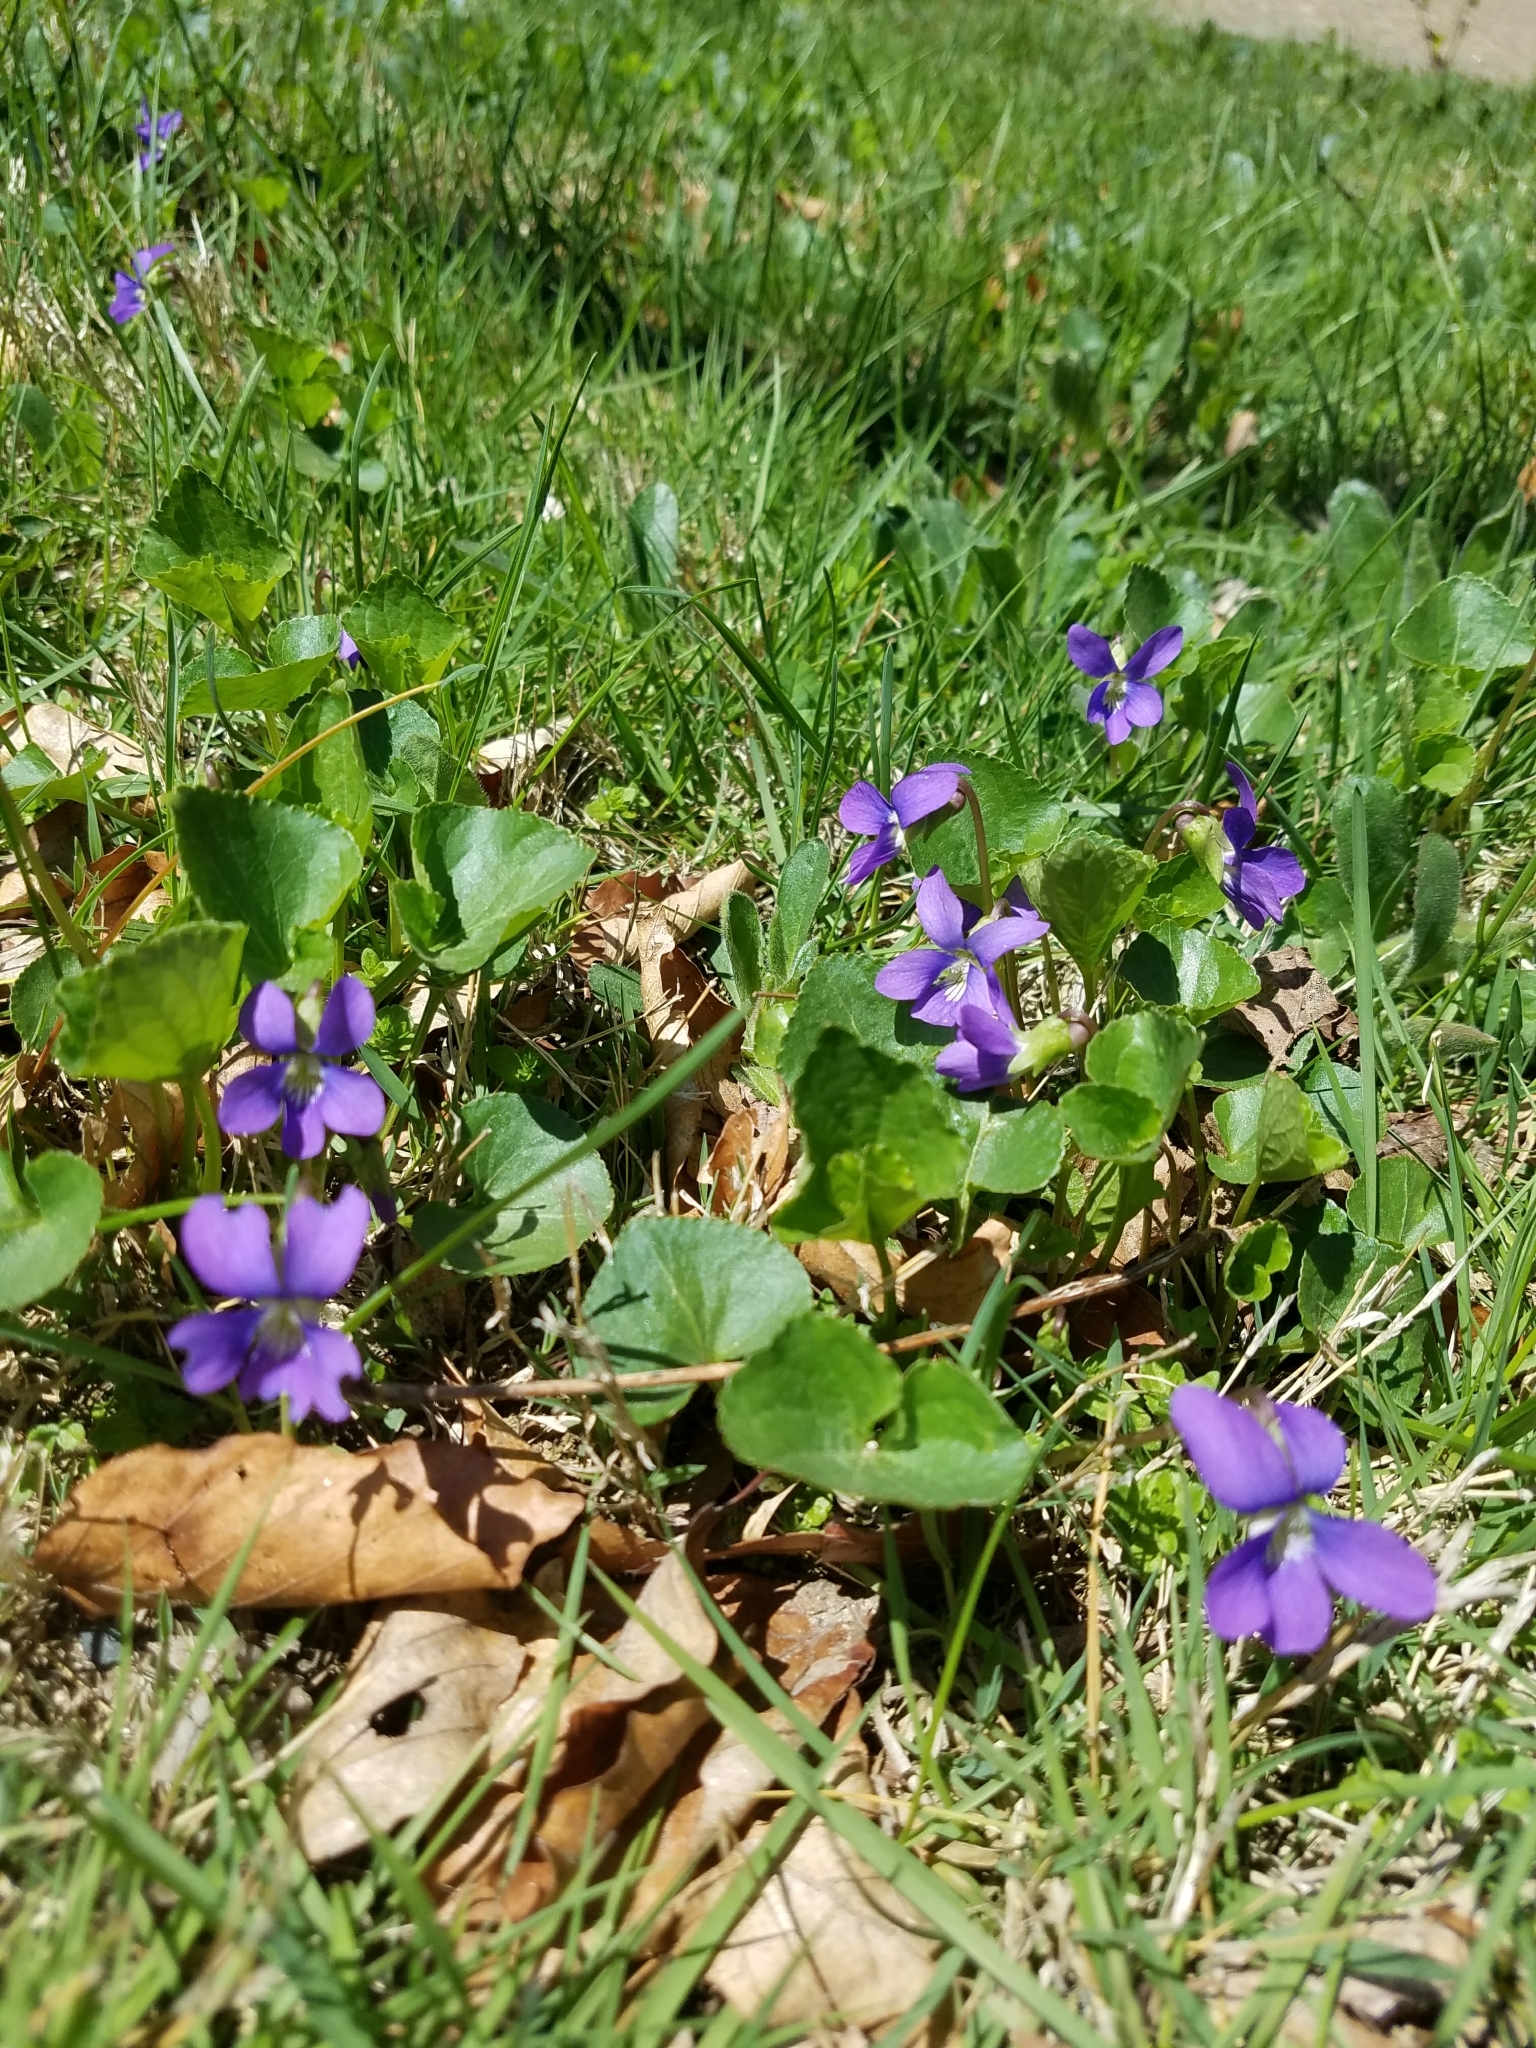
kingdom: Plantae
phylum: Tracheophyta
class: Magnoliopsida
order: Malpighiales
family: Violaceae
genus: Viola
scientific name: Viola sororia
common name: Dooryard violet
